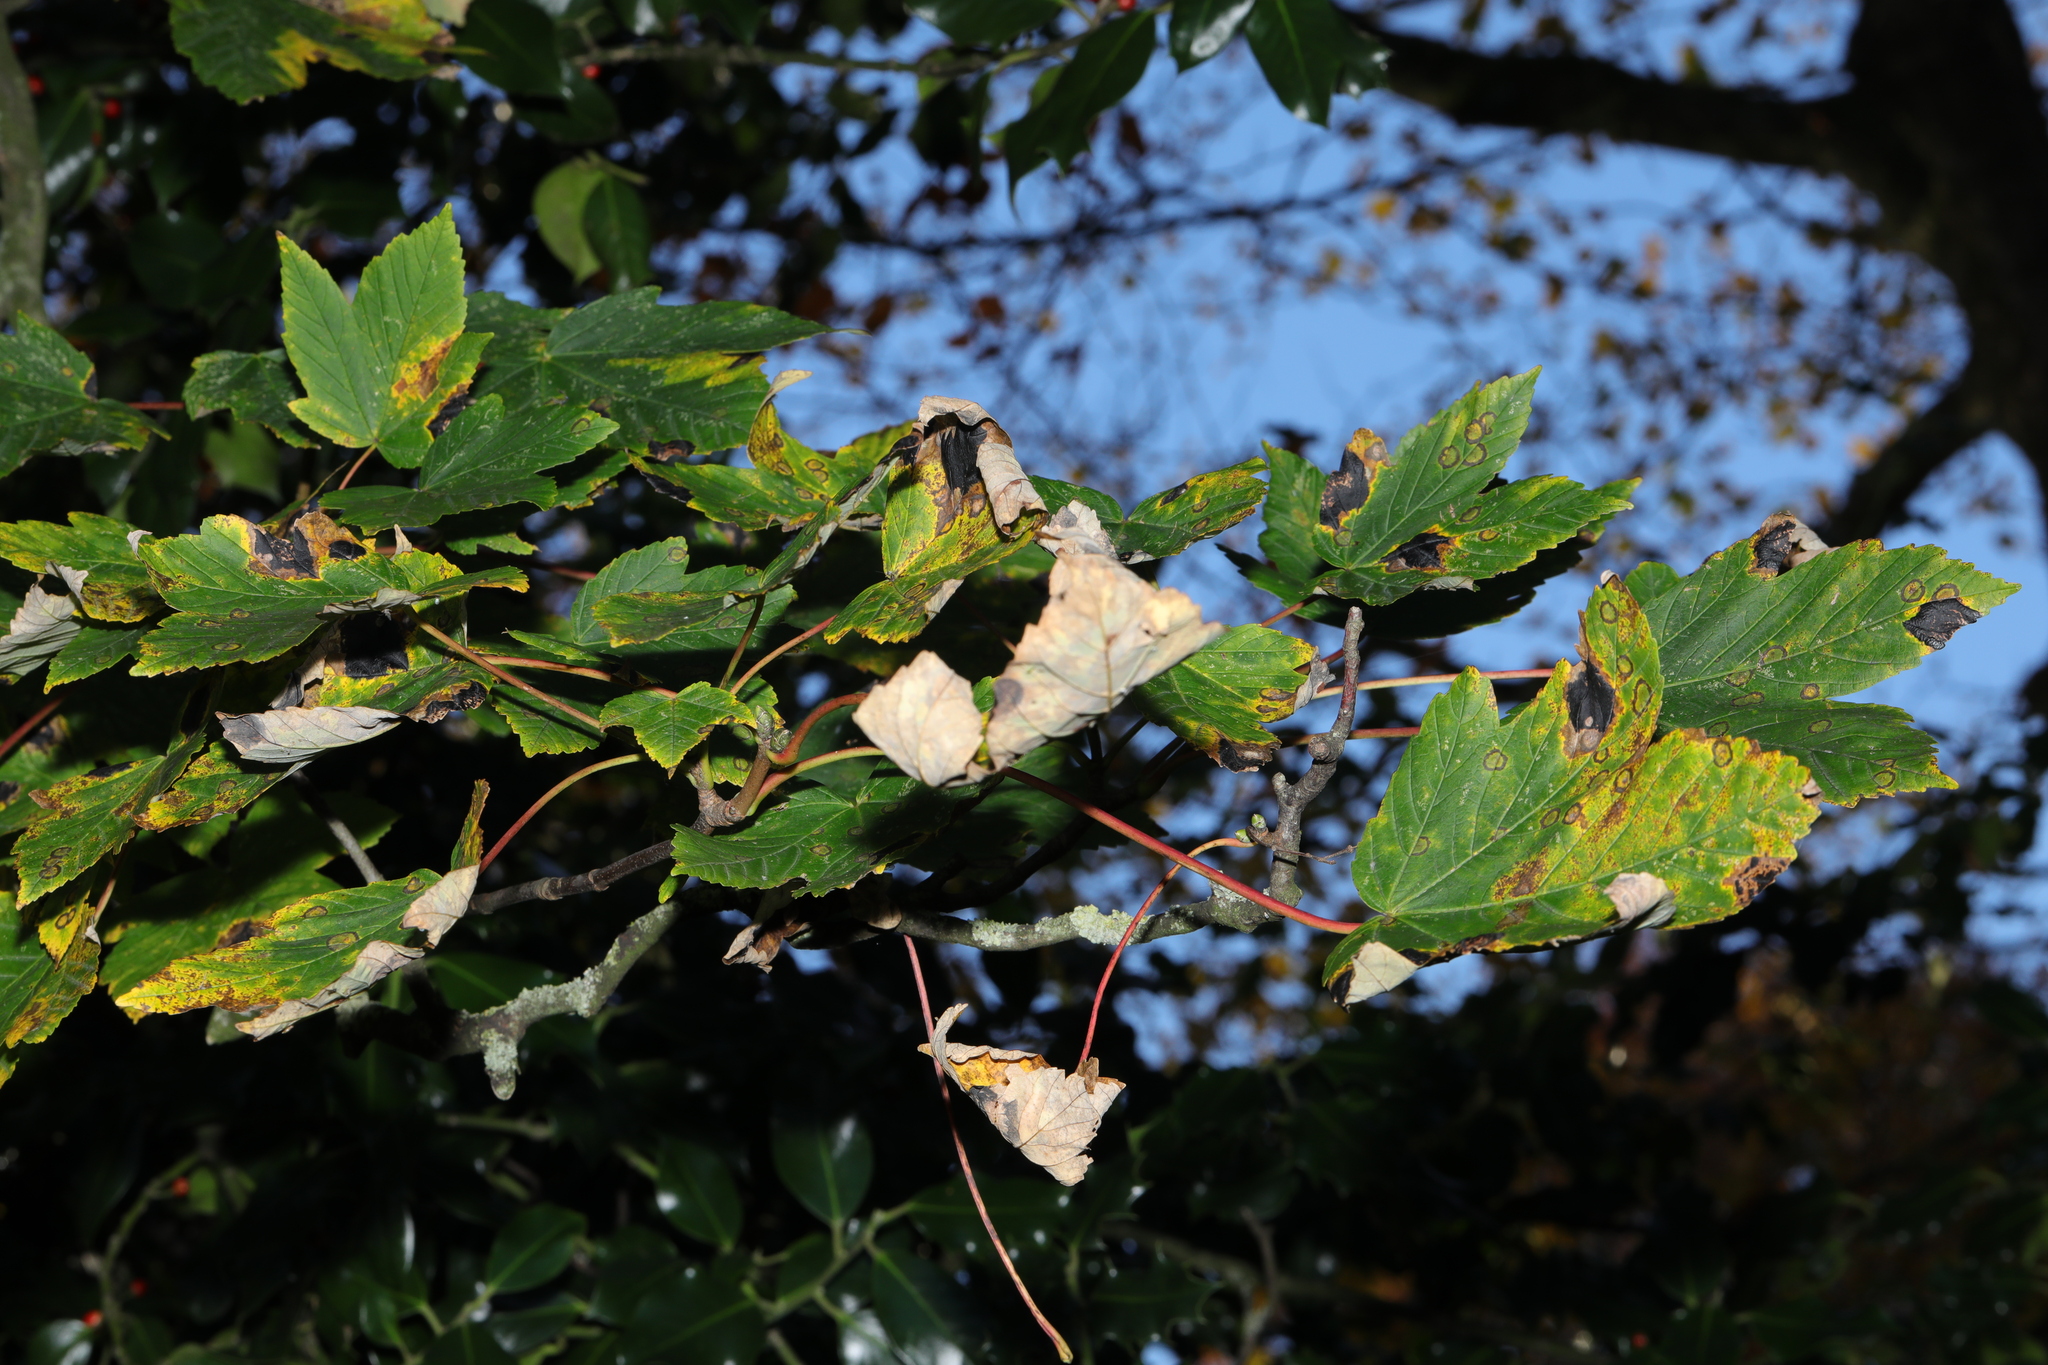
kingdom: Plantae
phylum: Tracheophyta
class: Magnoliopsida
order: Sapindales
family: Sapindaceae
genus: Acer
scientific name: Acer pseudoplatanus
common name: Sycamore
